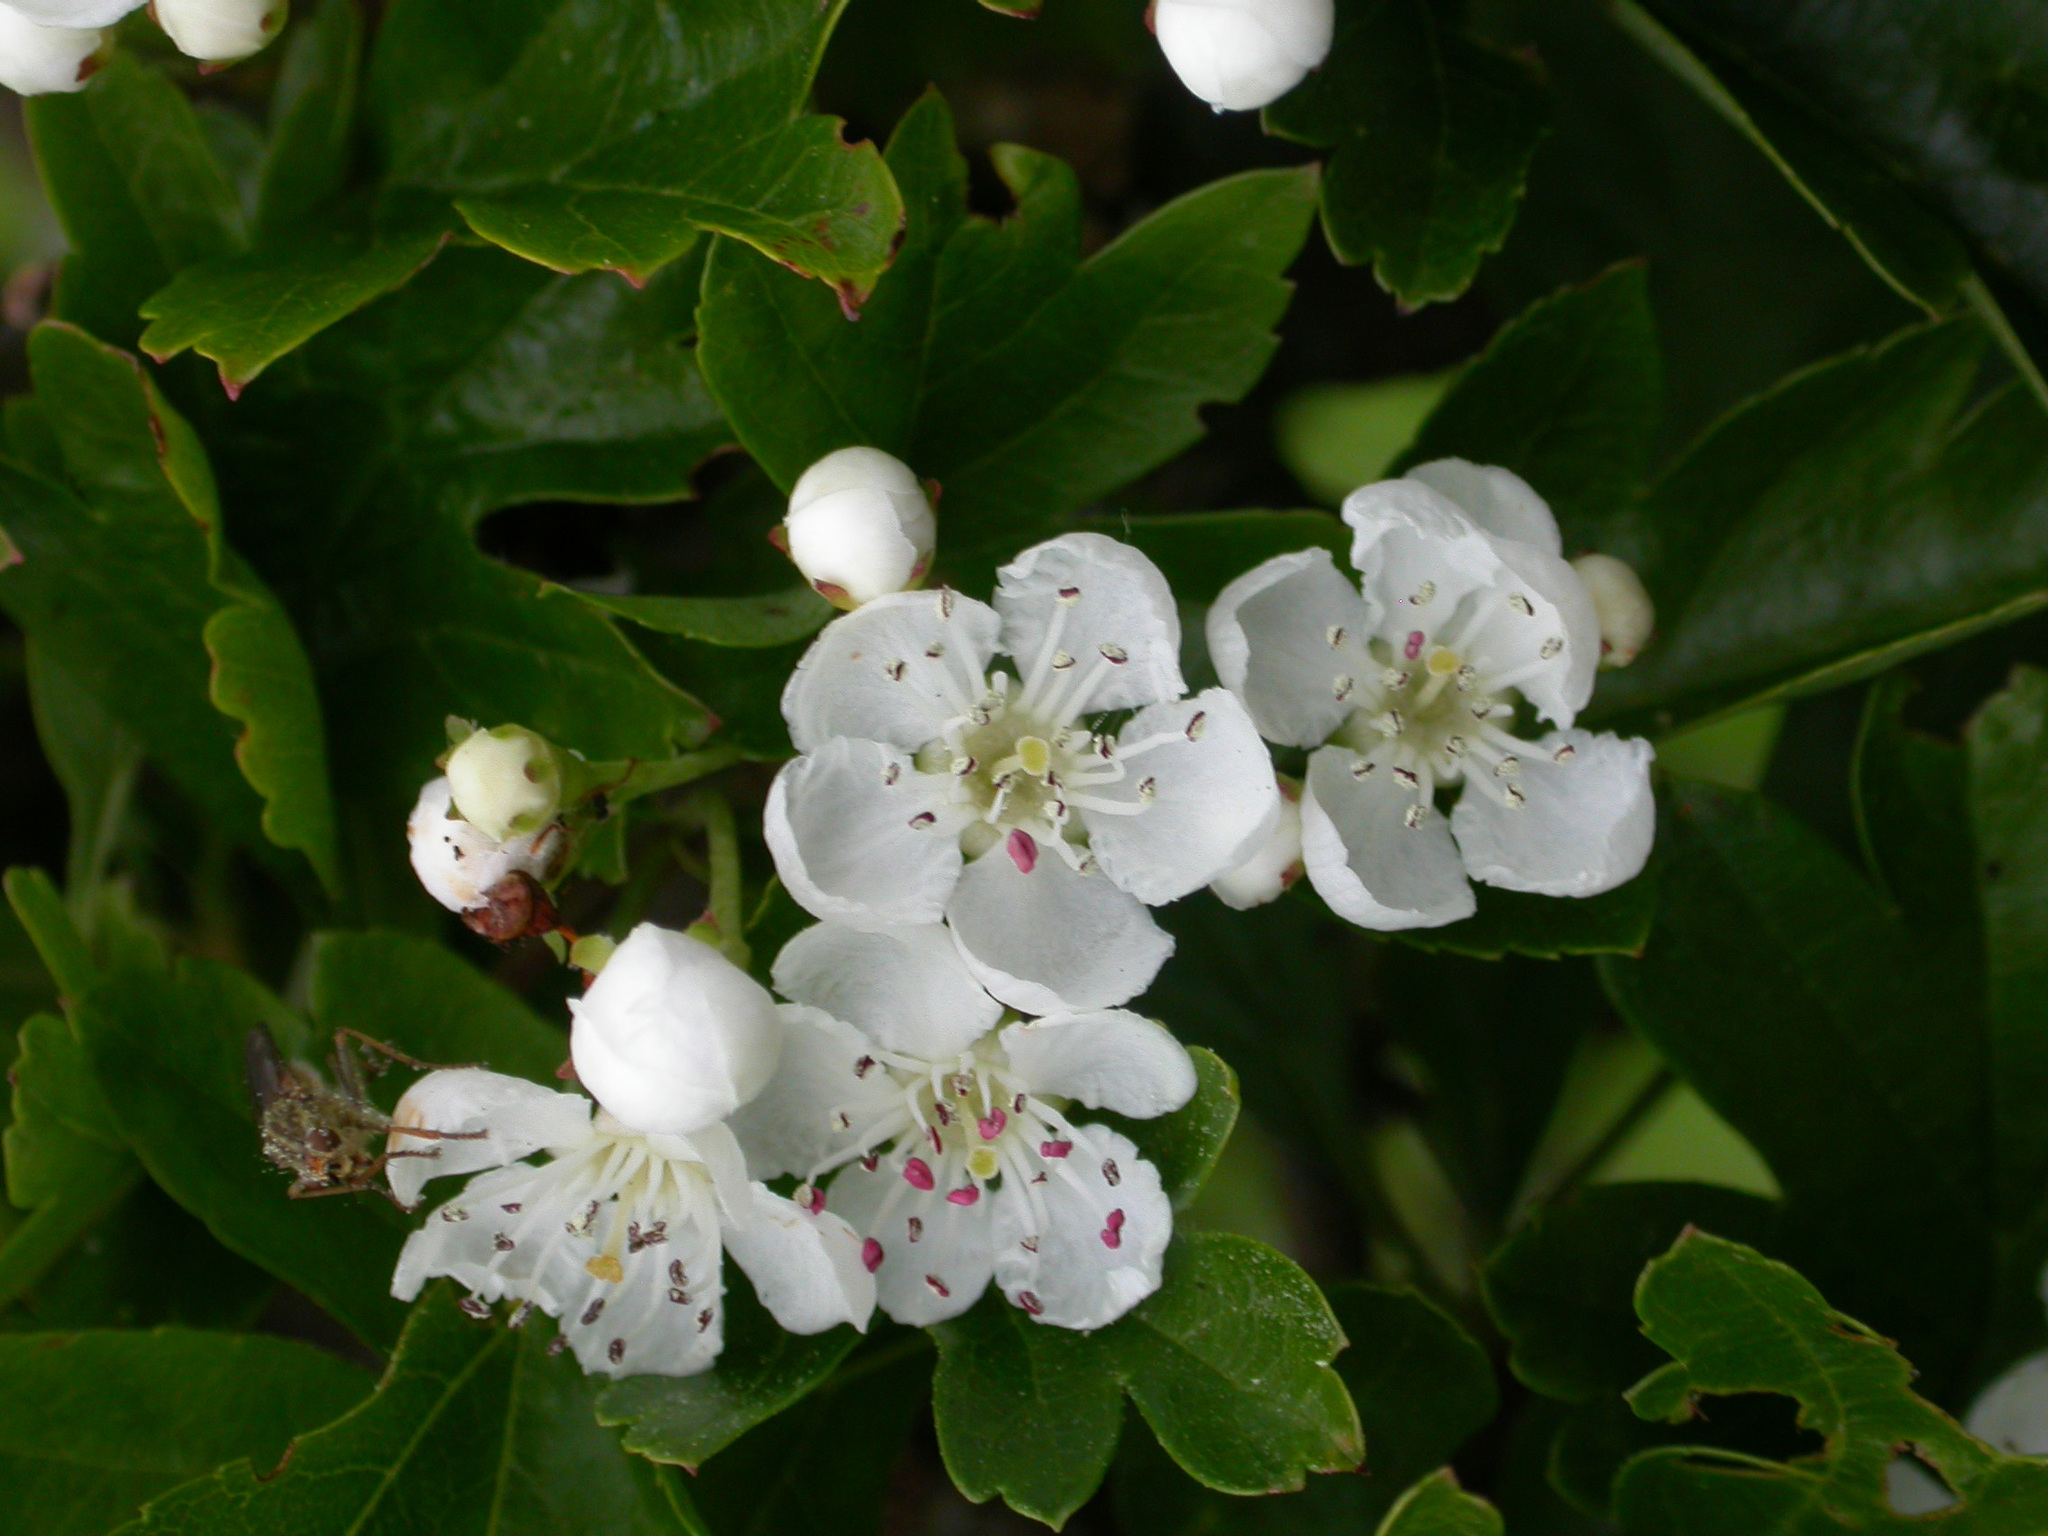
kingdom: Plantae
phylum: Tracheophyta
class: Magnoliopsida
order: Rosales
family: Rosaceae
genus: Crataegus
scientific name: Crataegus monogyna
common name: Hawthorn
